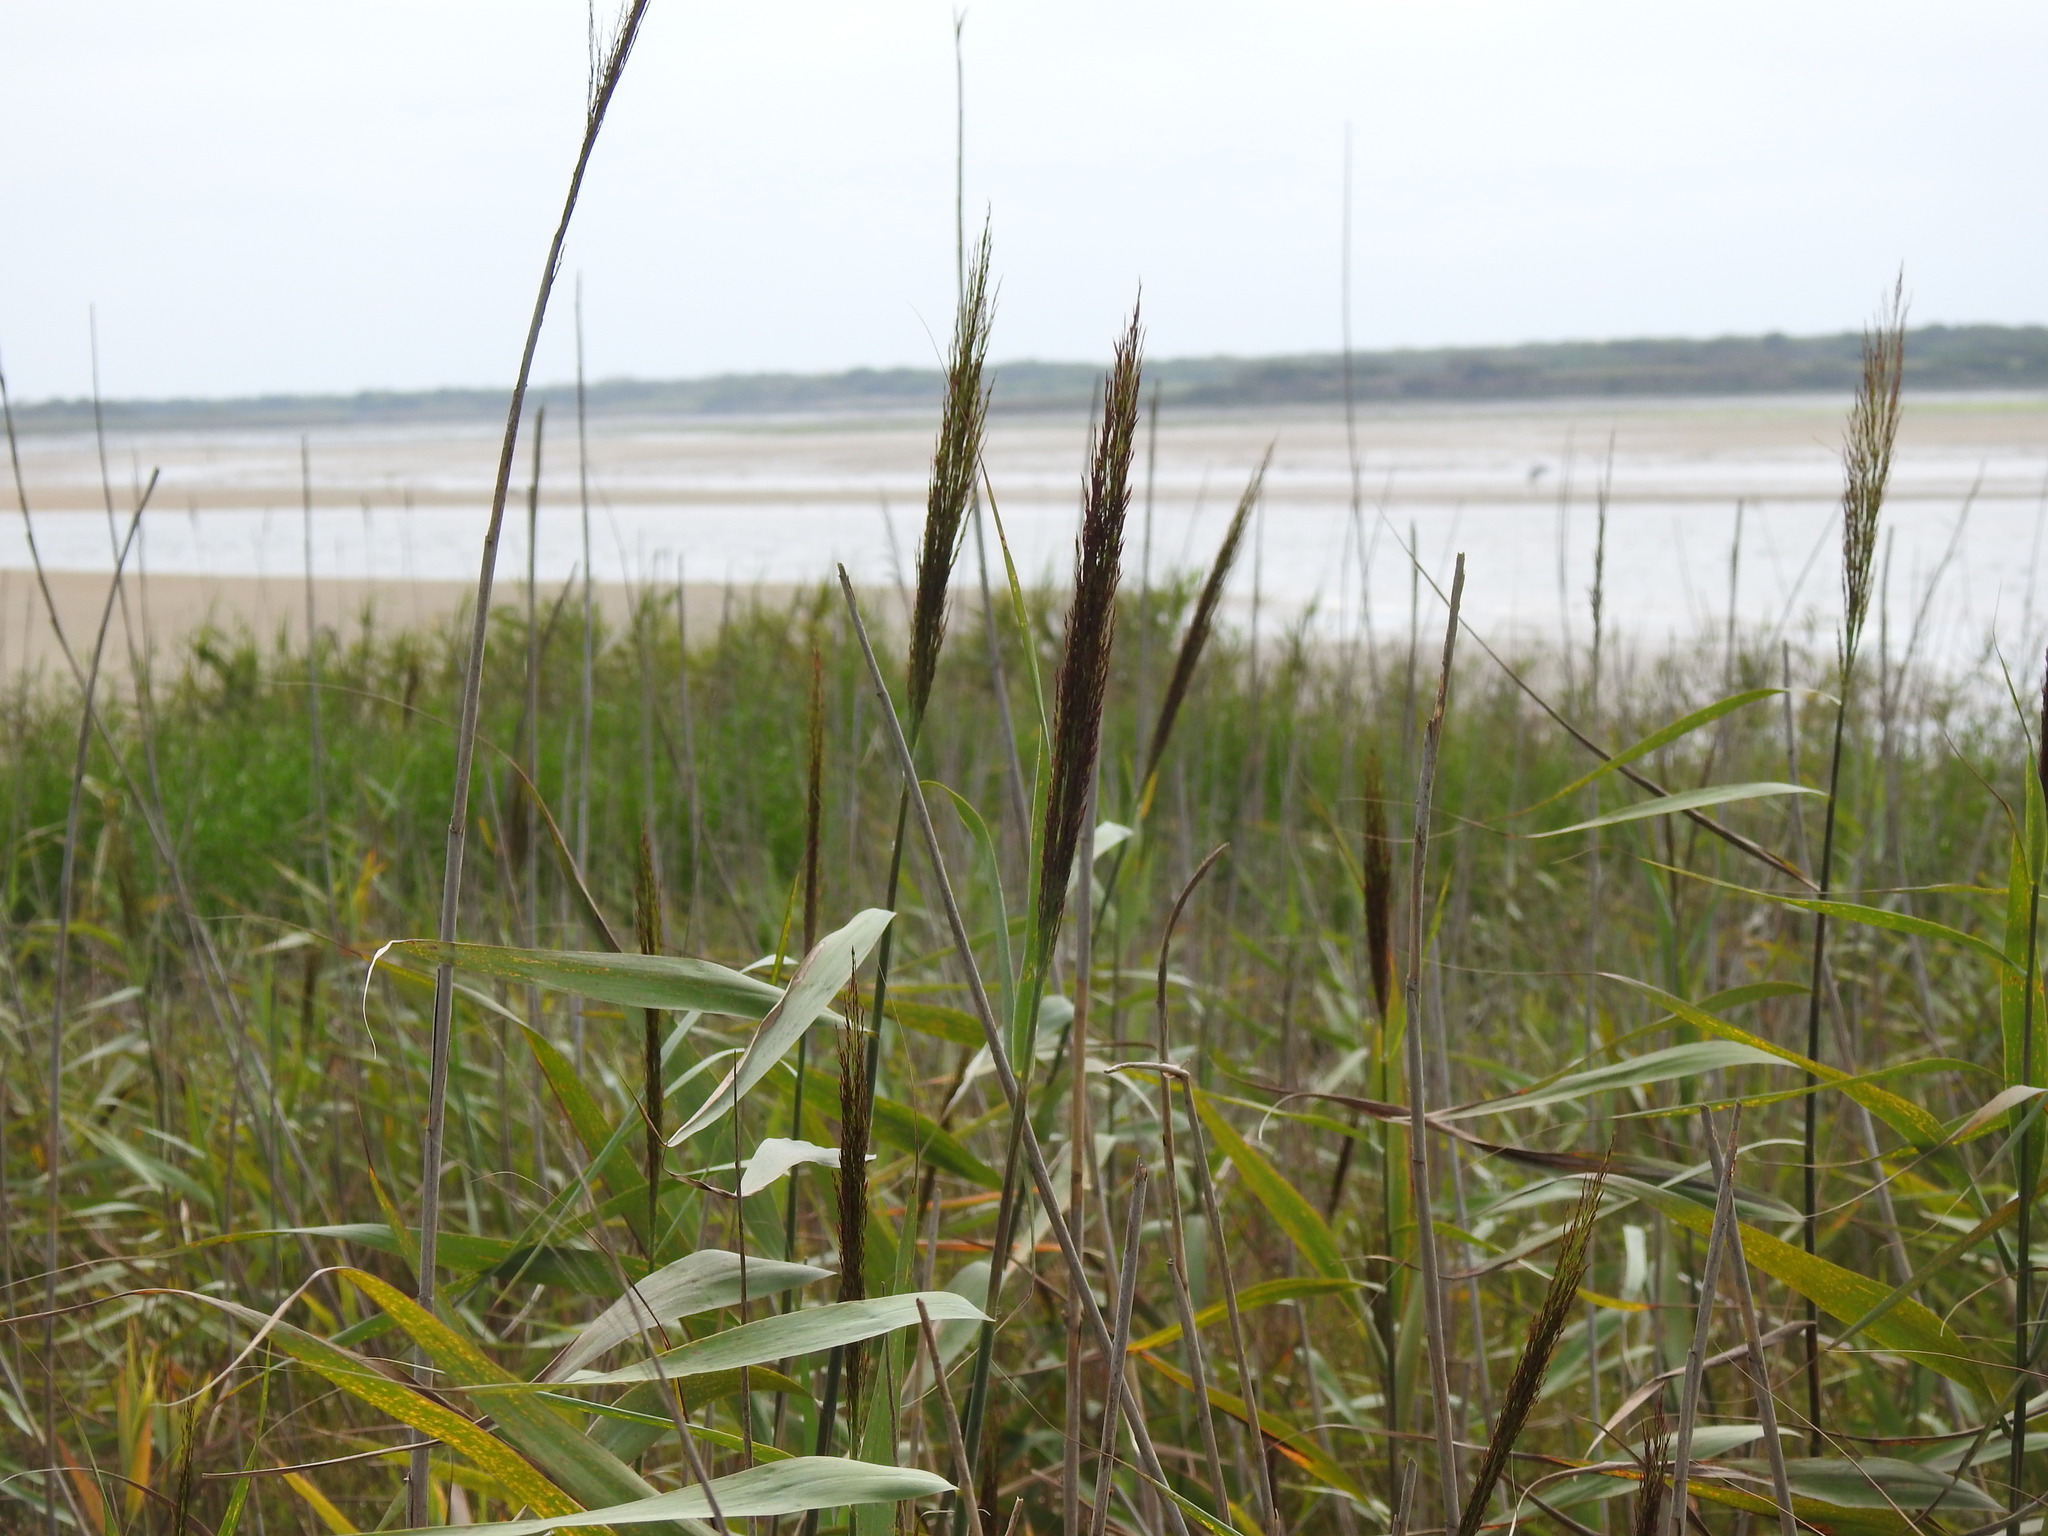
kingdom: Plantae
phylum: Tracheophyta
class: Liliopsida
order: Poales
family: Poaceae
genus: Phragmites
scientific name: Phragmites australis
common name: Common reed
